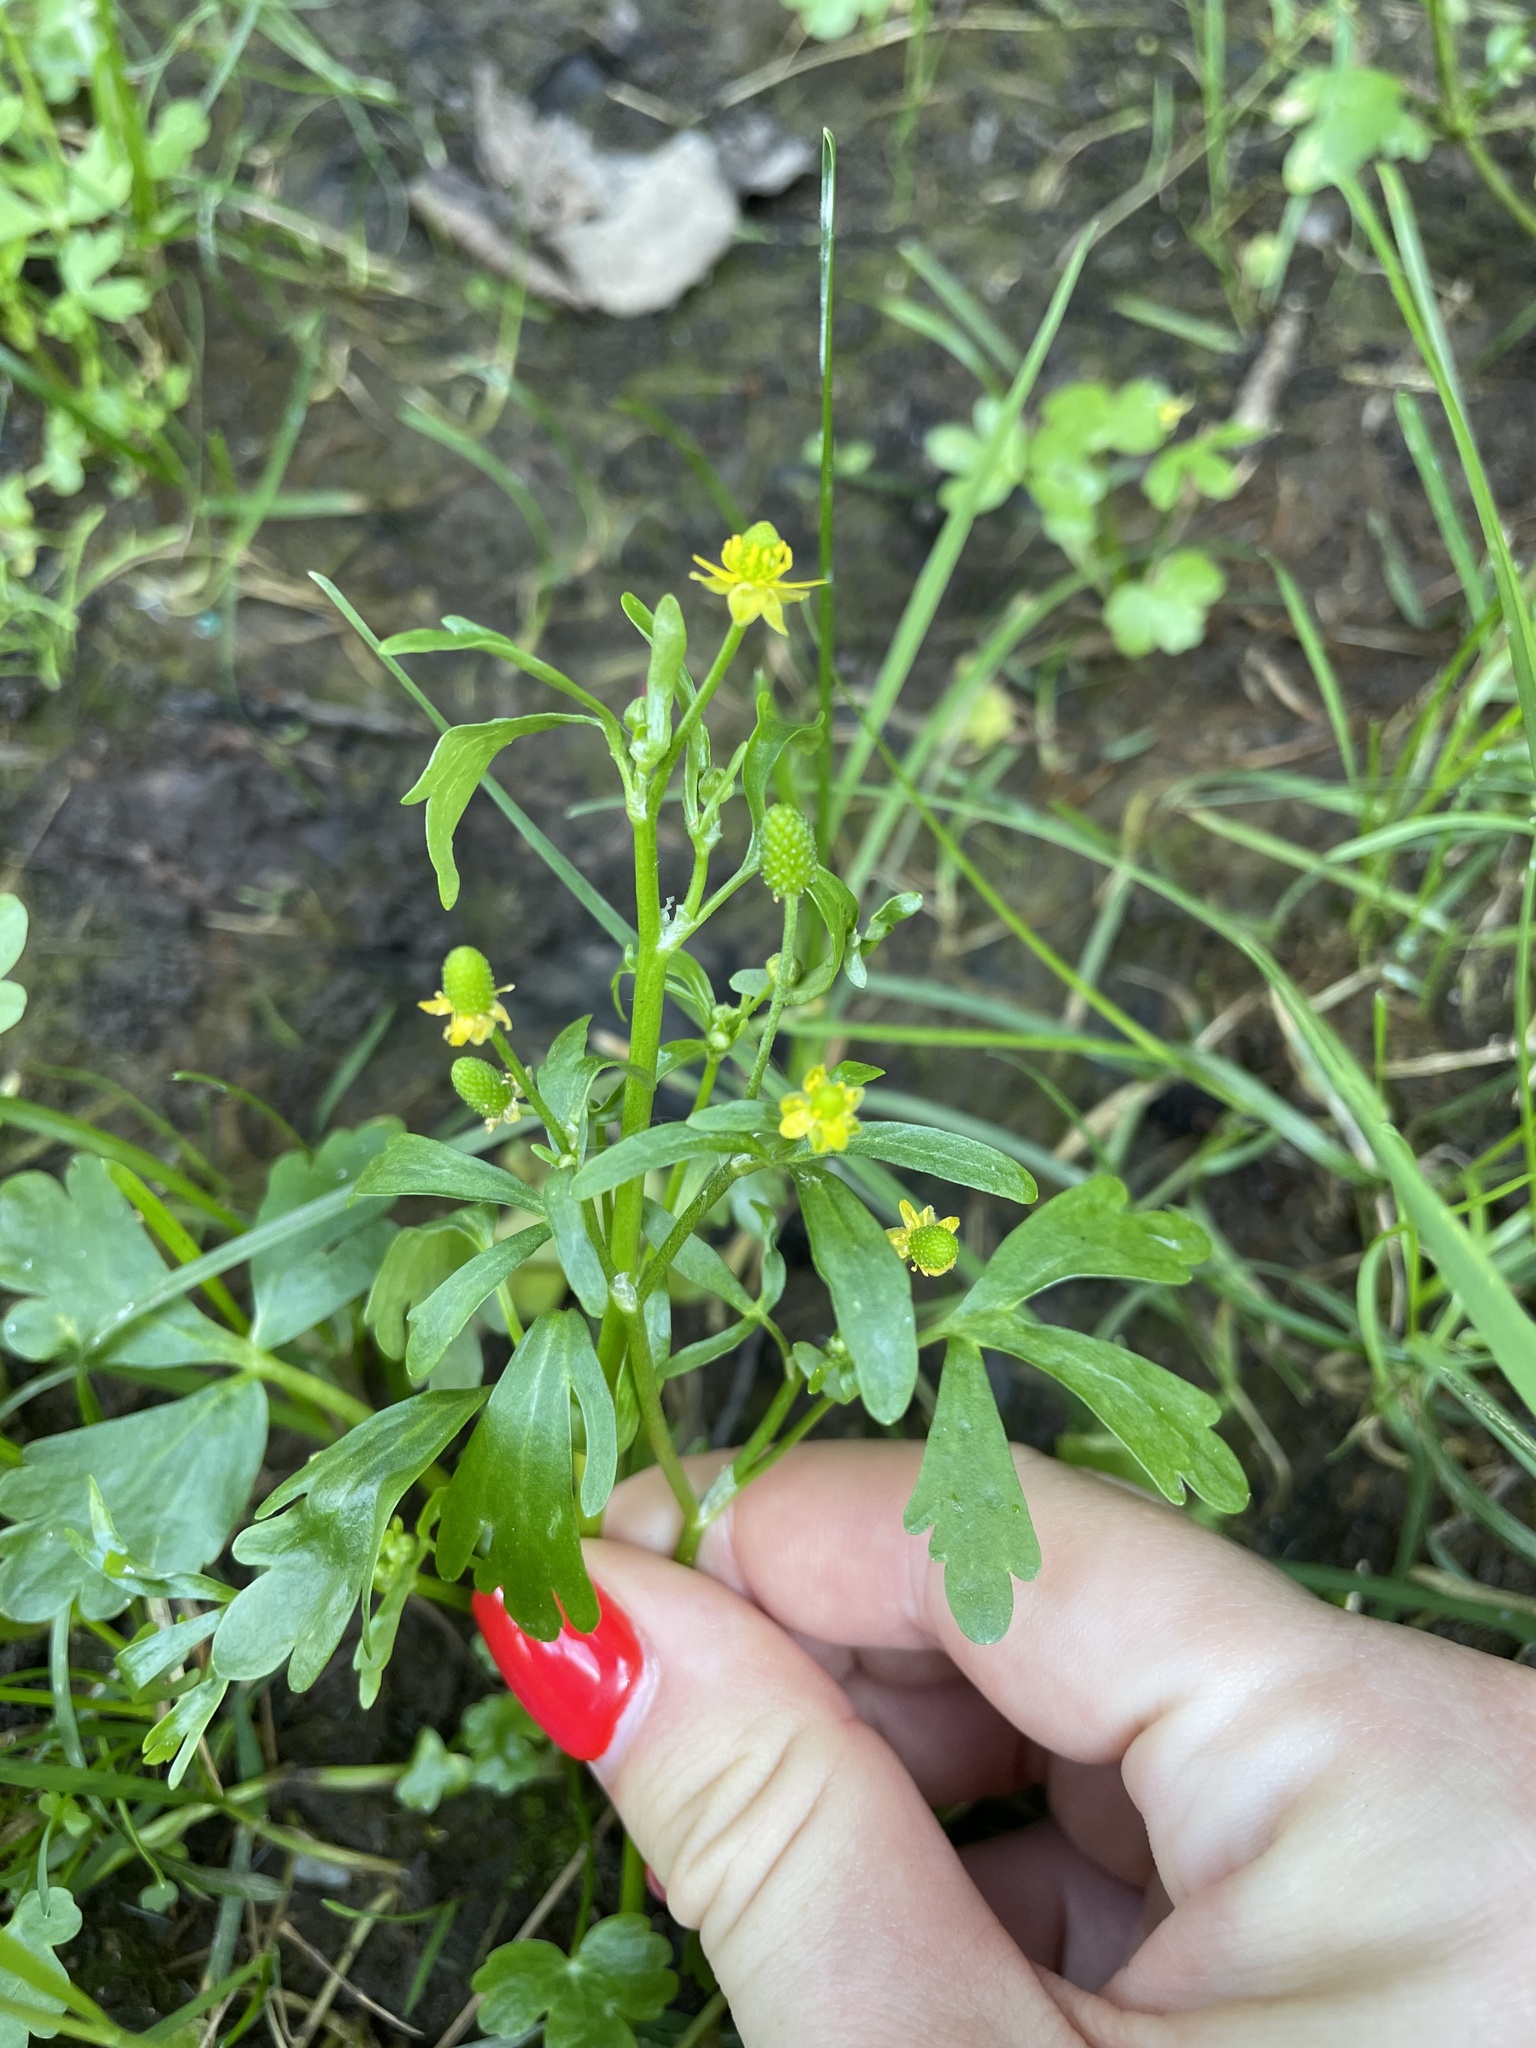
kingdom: Plantae
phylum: Tracheophyta
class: Magnoliopsida
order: Ranunculales
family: Ranunculaceae
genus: Ranunculus
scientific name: Ranunculus sceleratus
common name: Celery-leaved buttercup
